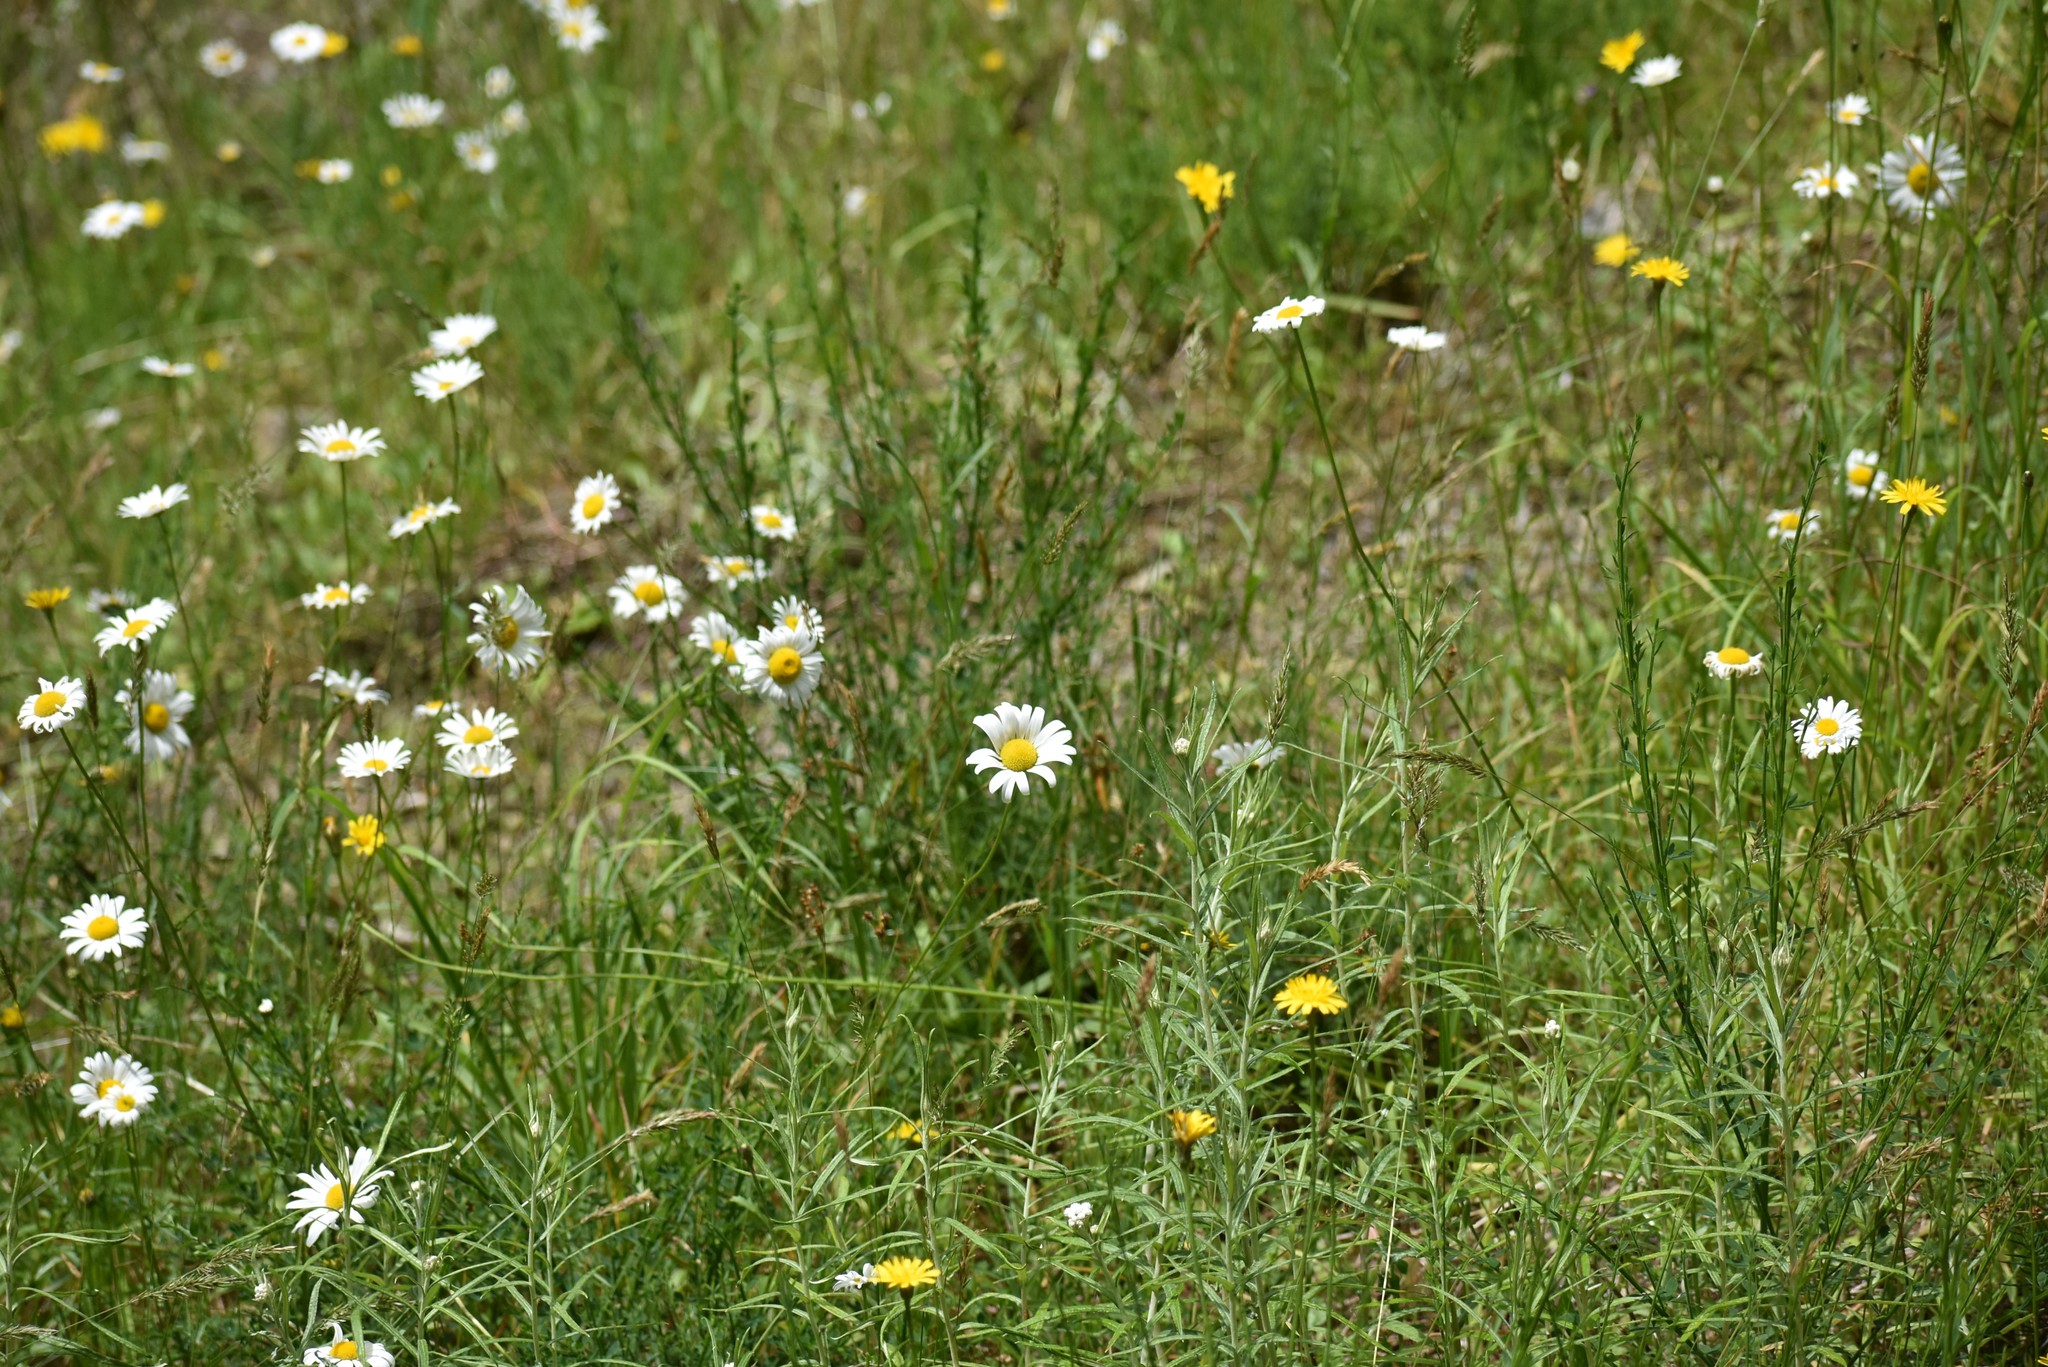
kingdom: Plantae
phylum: Tracheophyta
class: Magnoliopsida
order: Asterales
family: Asteraceae
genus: Leucanthemum
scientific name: Leucanthemum vulgare
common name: Oxeye daisy
